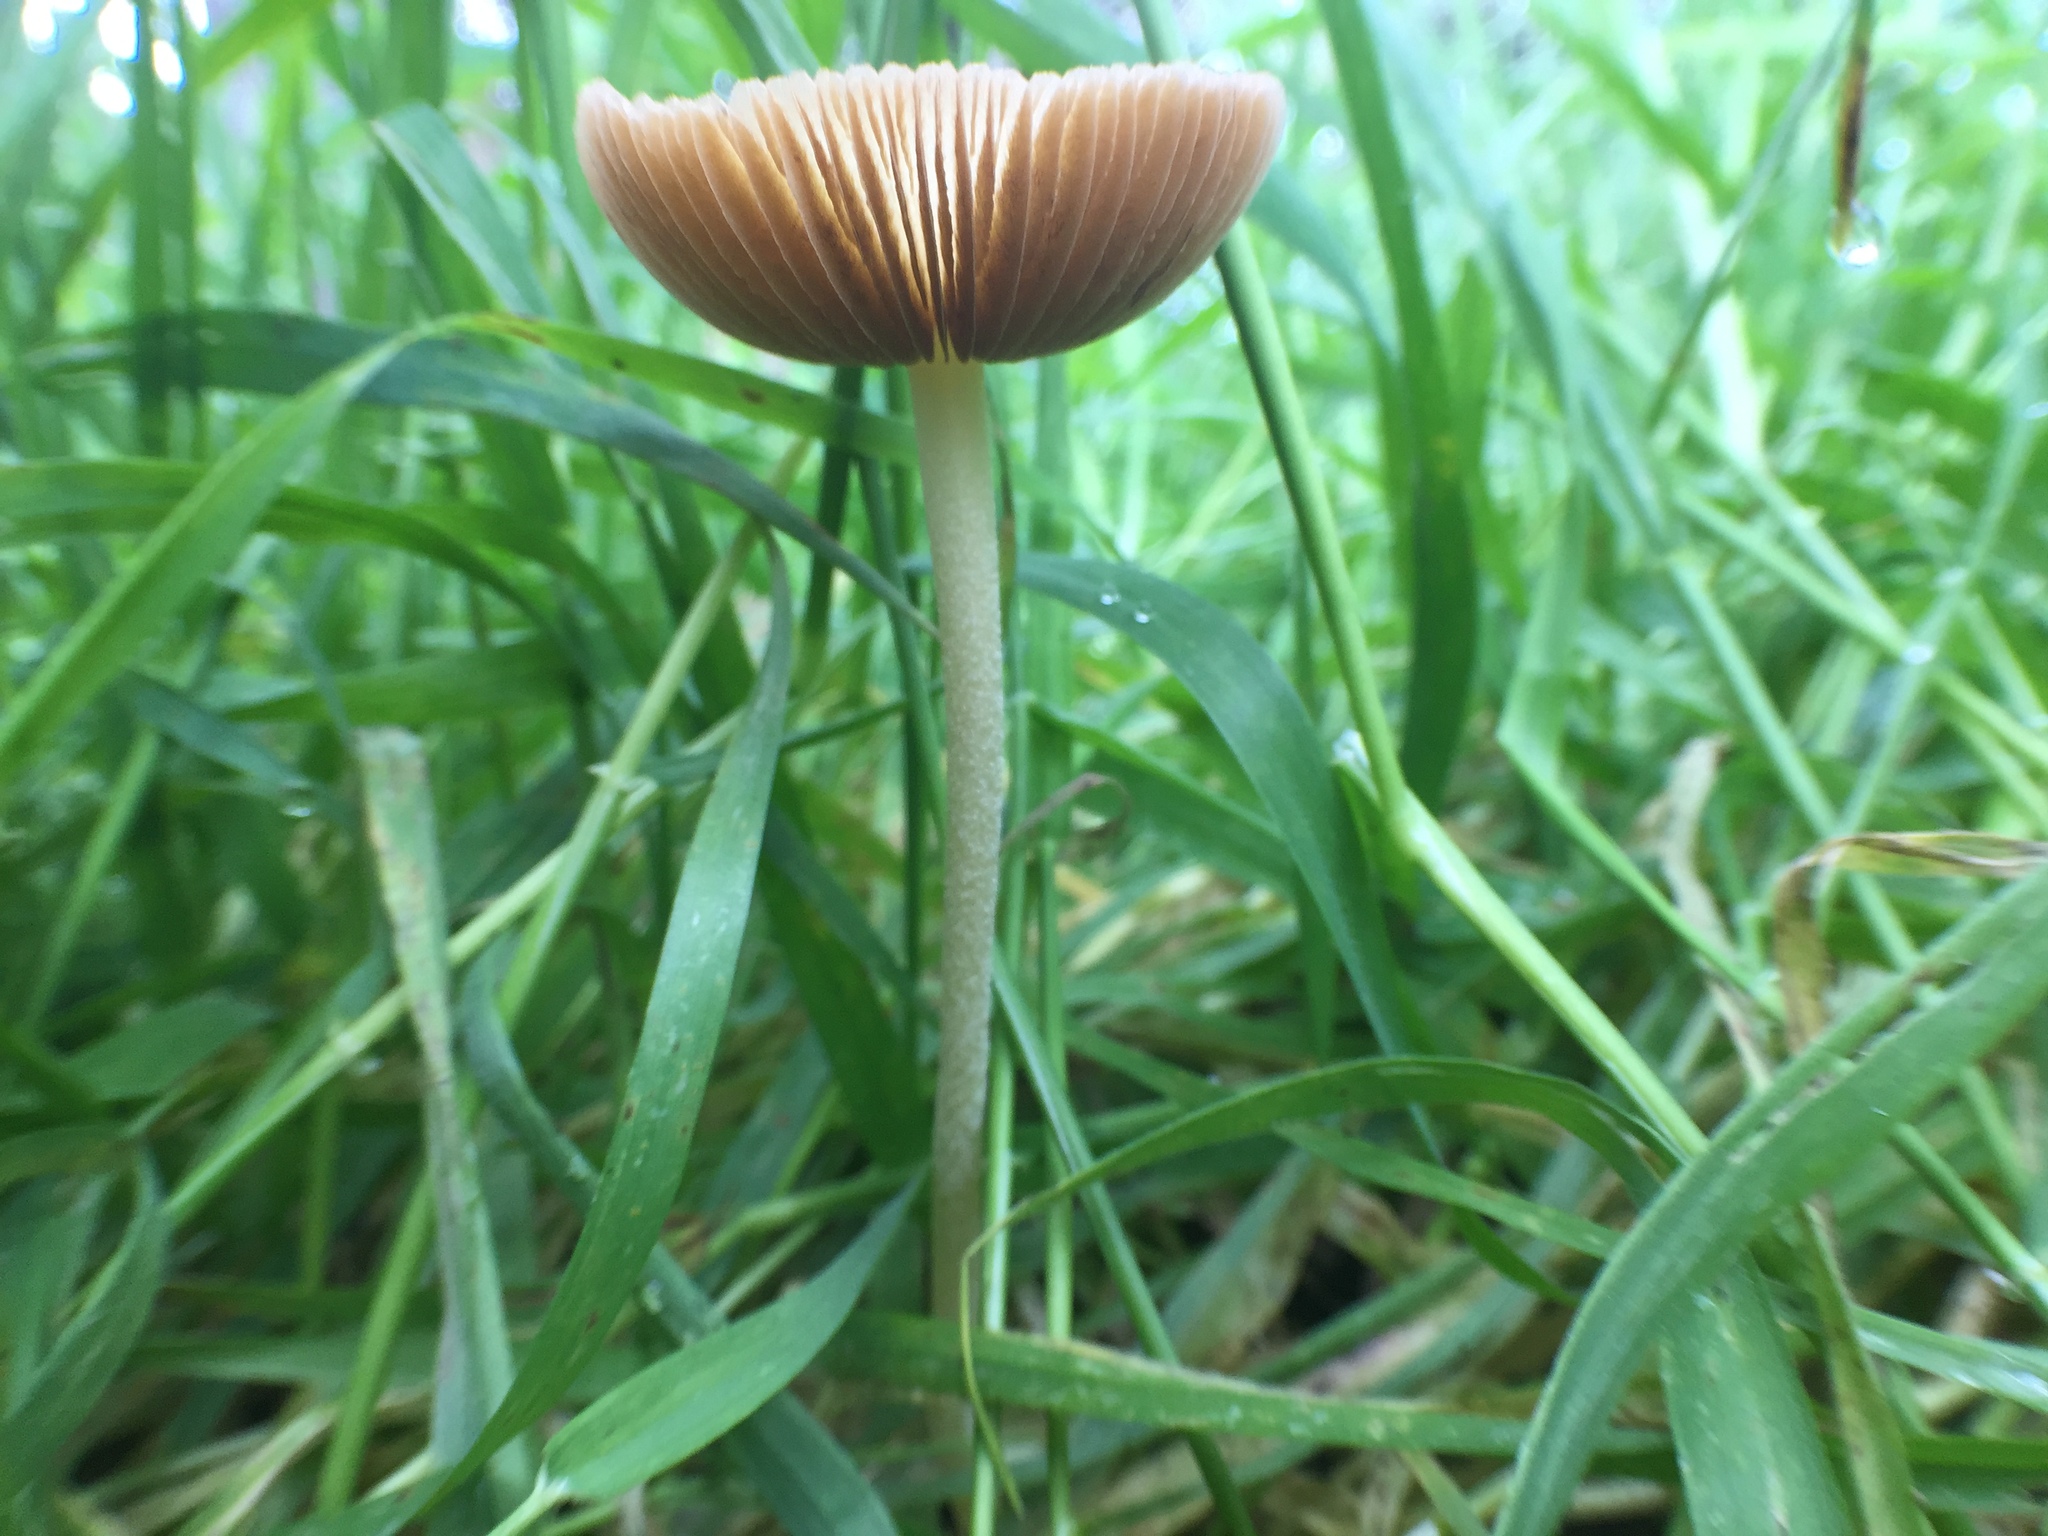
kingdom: Fungi
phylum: Basidiomycota
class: Agaricomycetes
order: Agaricales
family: Bolbitiaceae
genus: Bolbitius
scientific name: Bolbitius titubans
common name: Yellow fieldcap
